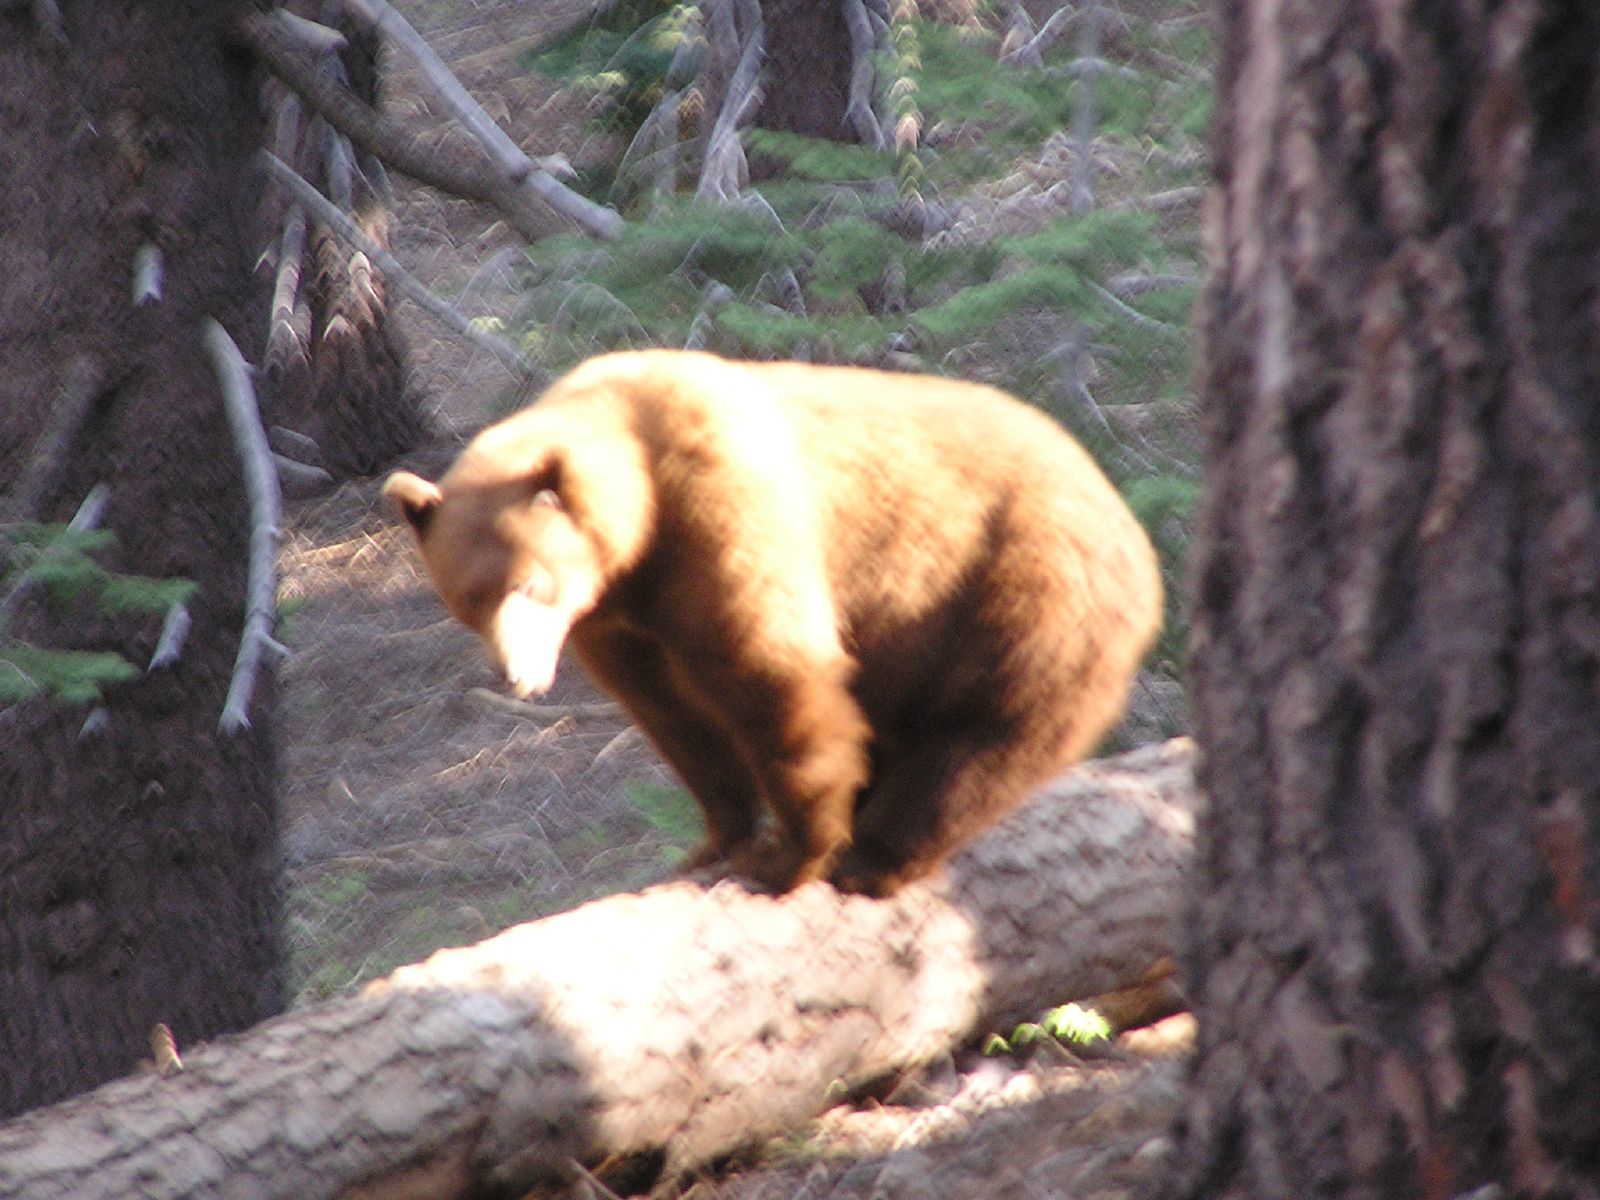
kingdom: Animalia
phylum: Chordata
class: Mammalia
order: Carnivora
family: Ursidae
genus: Ursus
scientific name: Ursus americanus
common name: American black bear
